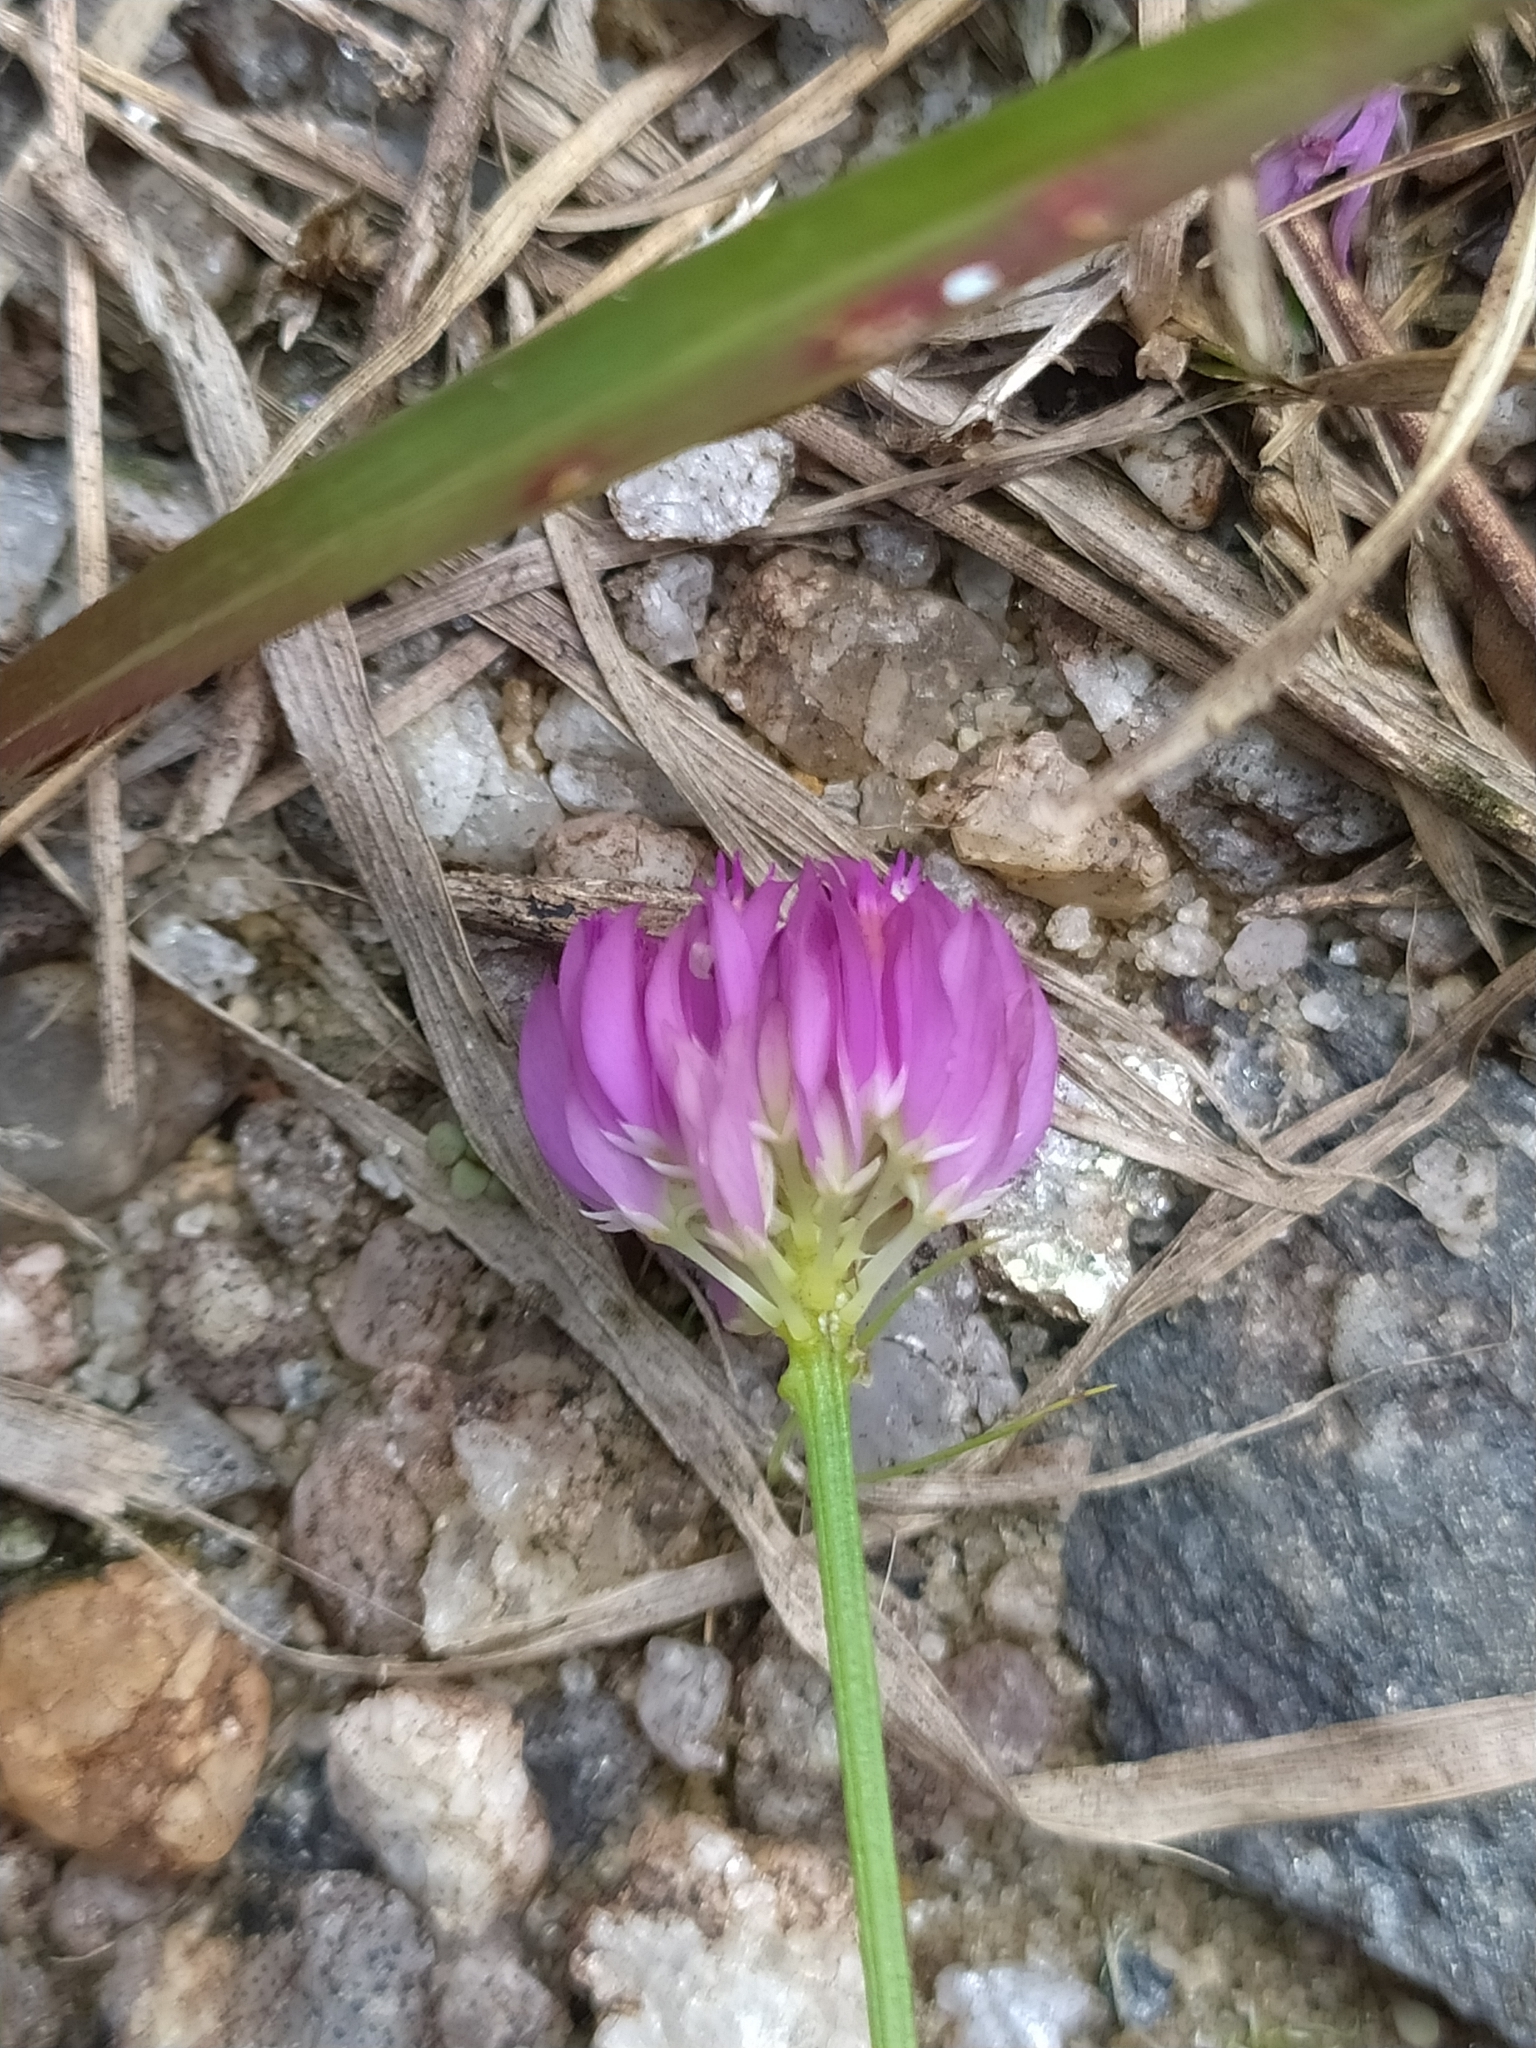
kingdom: Plantae
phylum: Tracheophyta
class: Magnoliopsida
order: Fabales
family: Polygalaceae
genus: Polygala
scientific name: Polygala longicaulis
